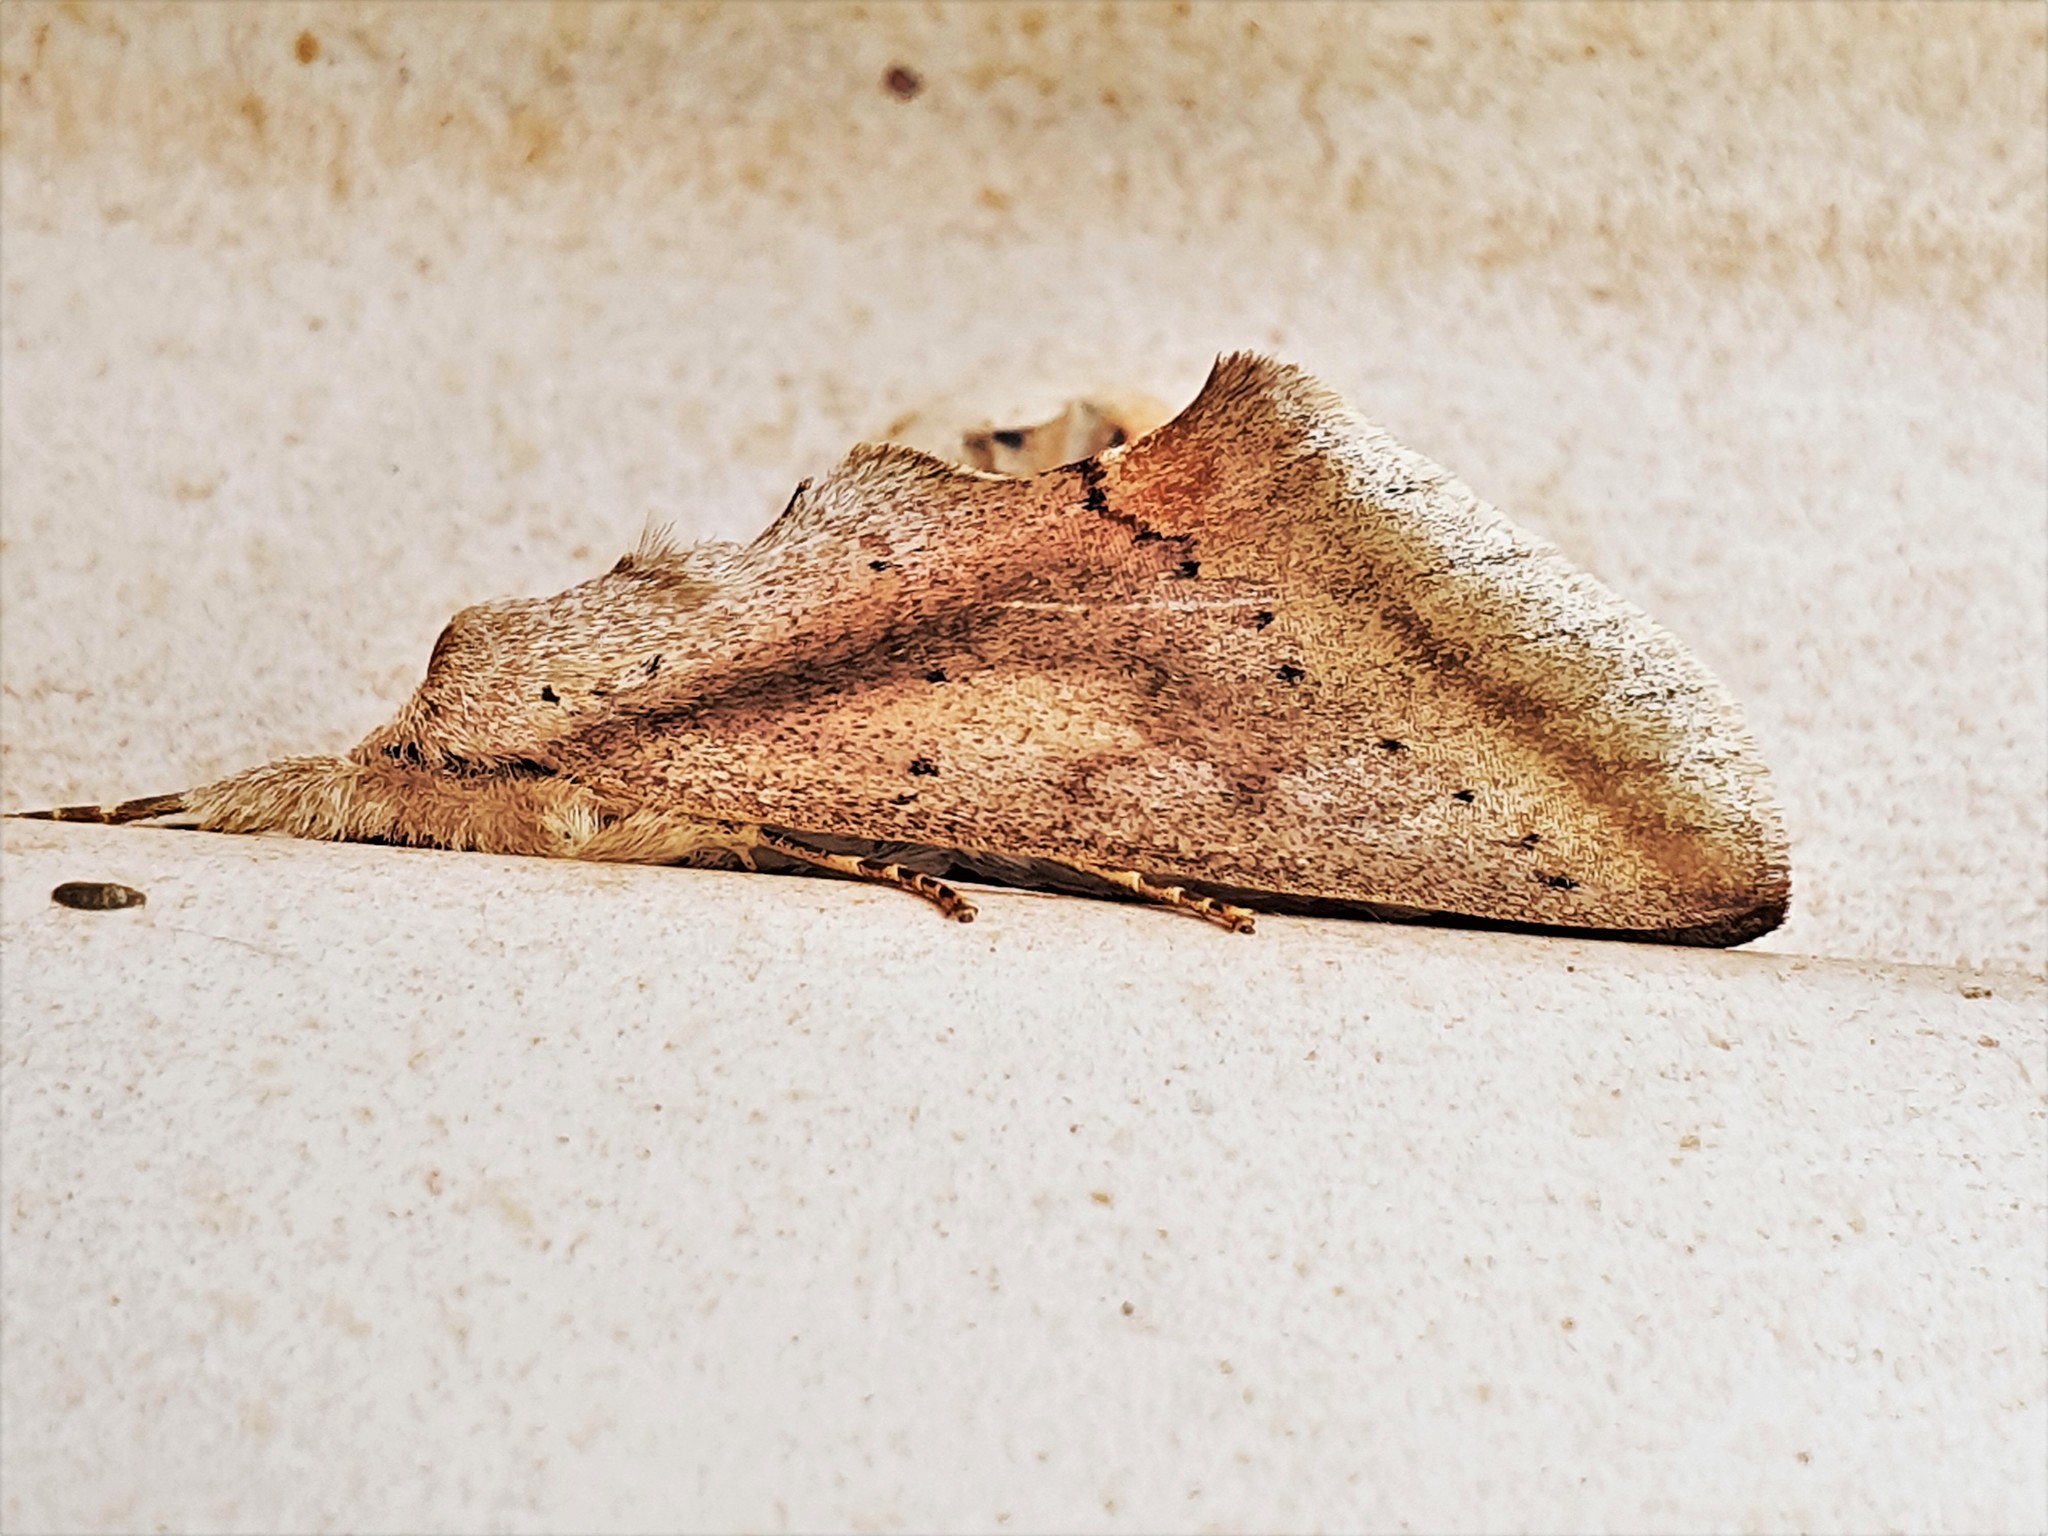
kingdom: Animalia
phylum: Arthropoda
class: Insecta
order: Lepidoptera
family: Notodontidae
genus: Hemiceras
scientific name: Hemiceras sabis
